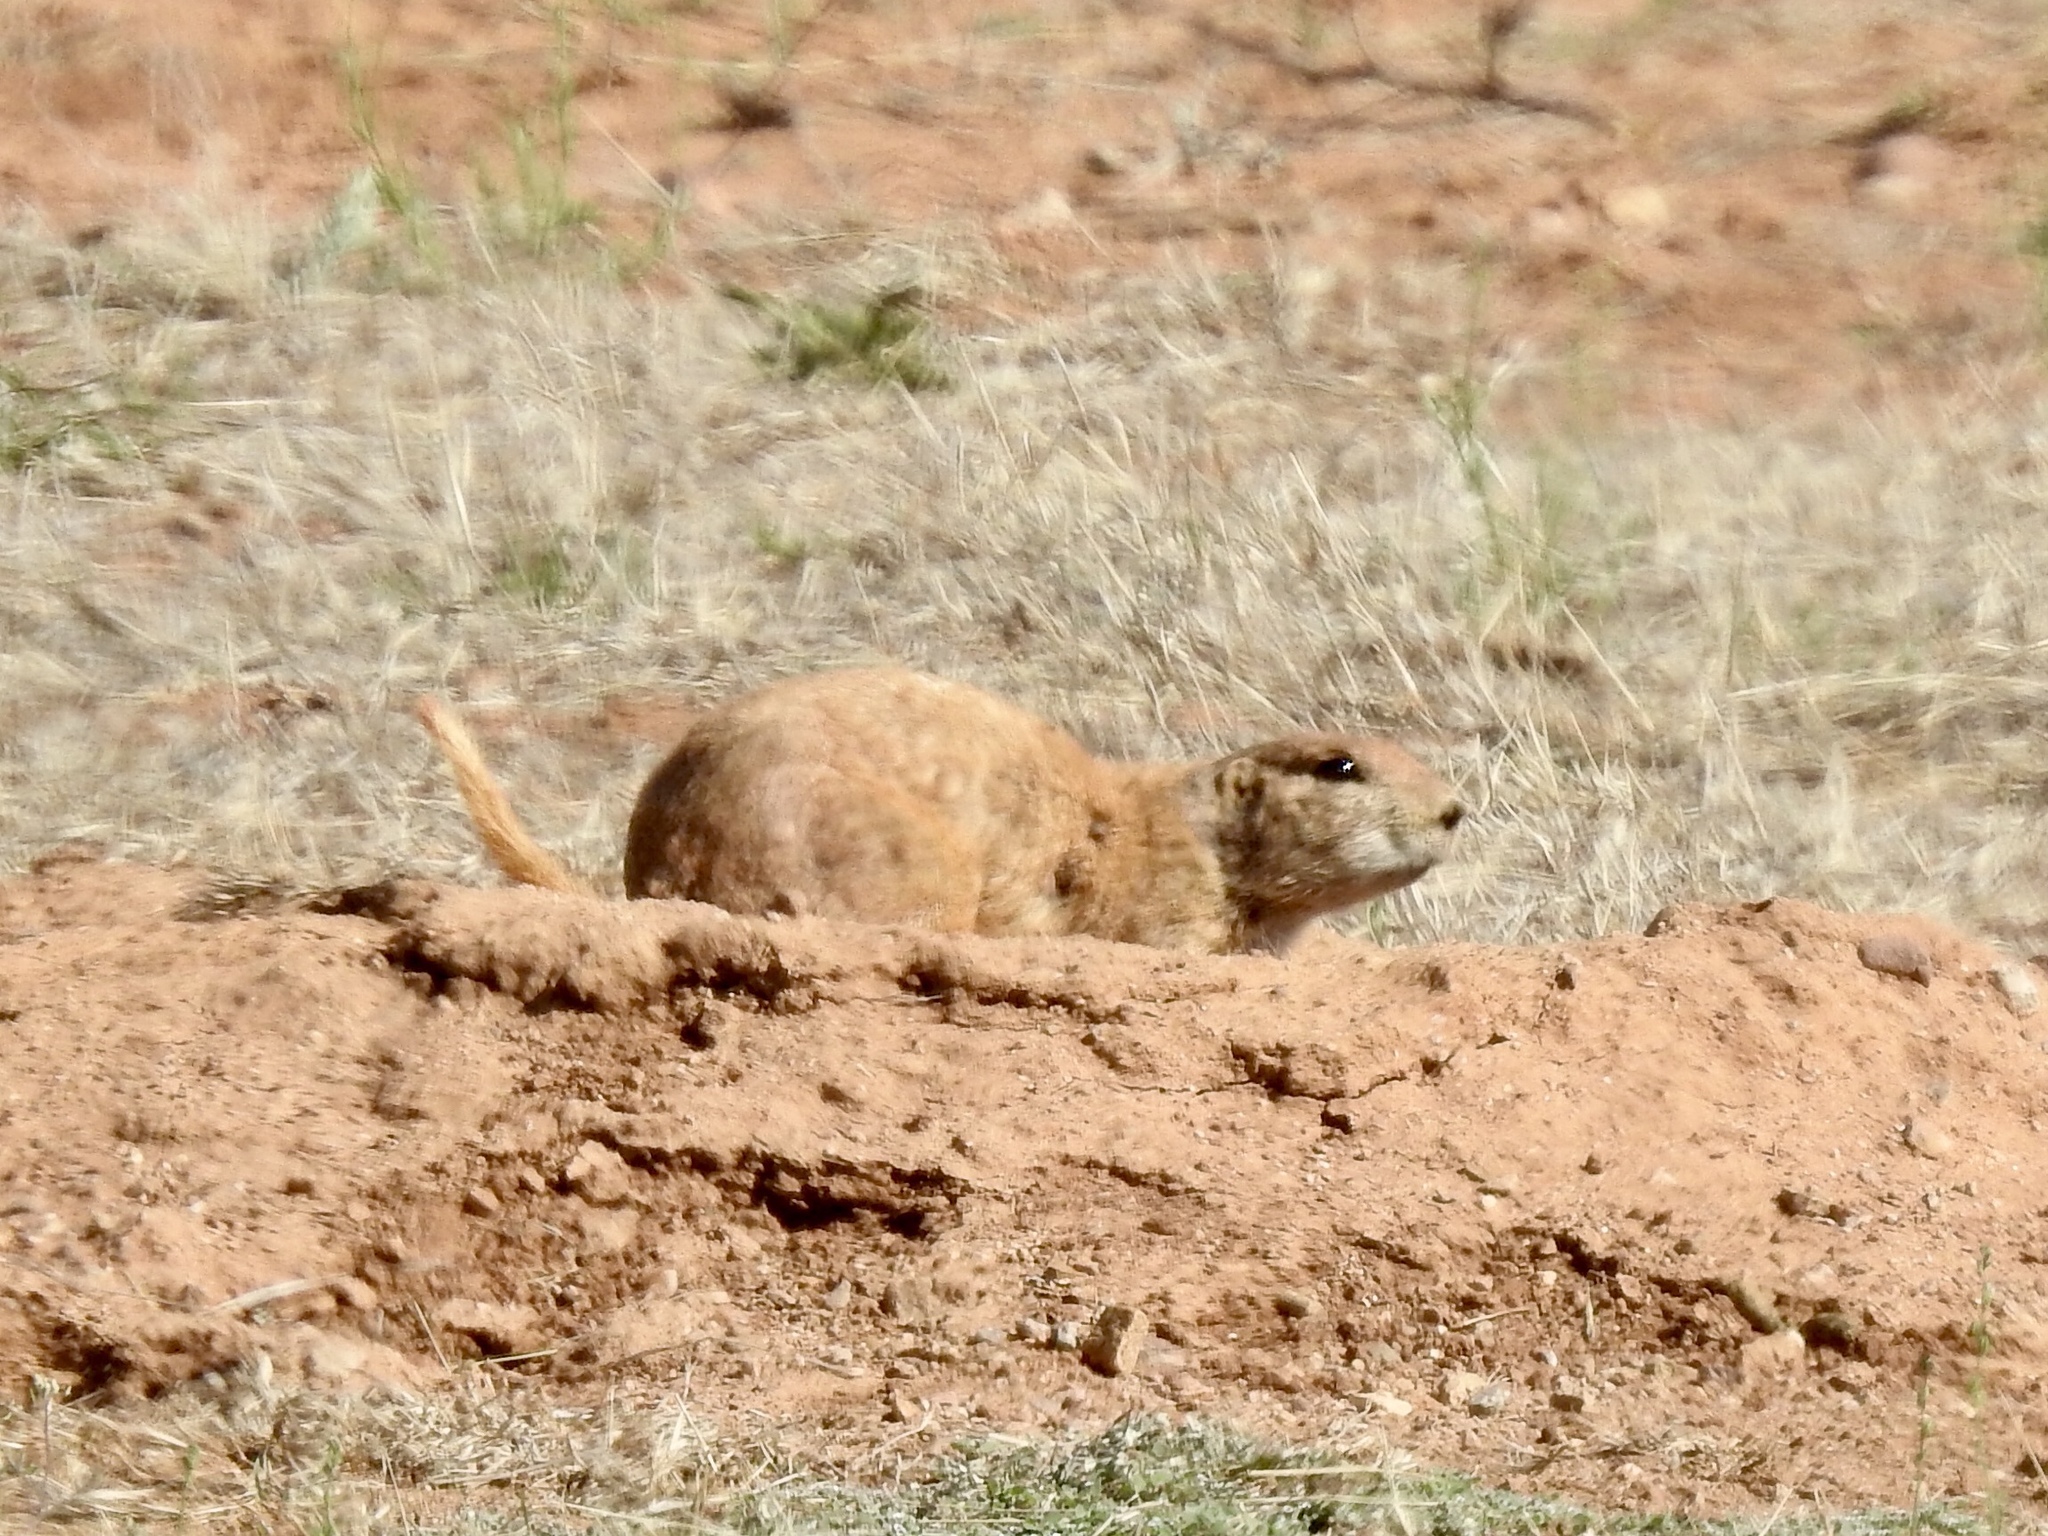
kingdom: Animalia
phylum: Chordata
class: Mammalia
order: Rodentia
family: Sciuridae
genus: Cynomys
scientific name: Cynomys ludovicianus
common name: Black-tailed prairie dog
